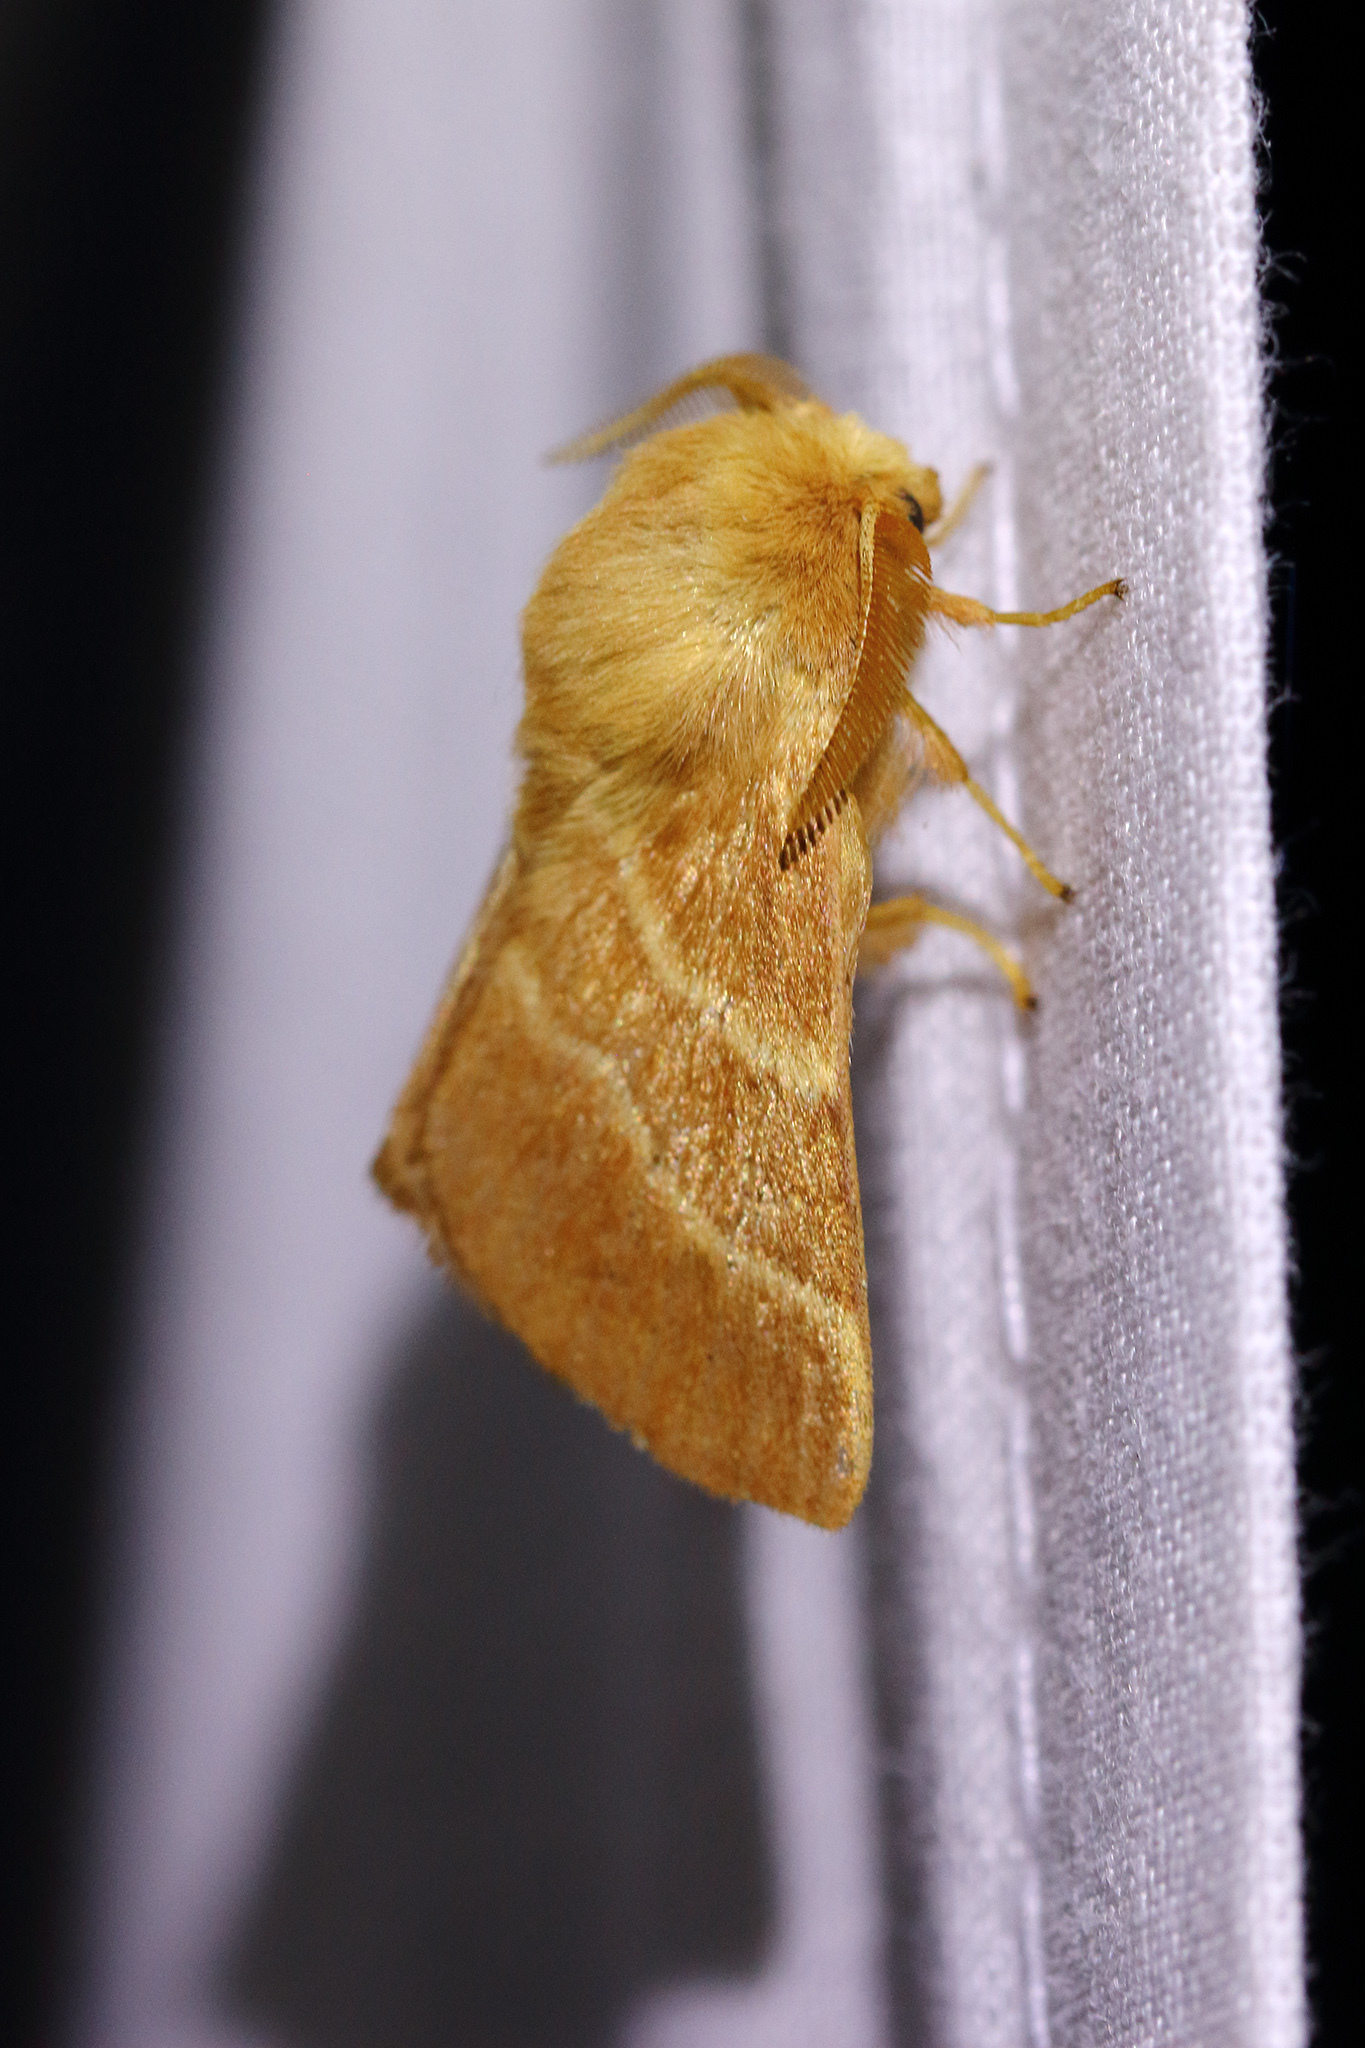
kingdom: Animalia
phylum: Arthropoda
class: Insecta
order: Lepidoptera
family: Lasiocampidae
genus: Malacosoma
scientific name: Malacosoma neustria
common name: The lackey
